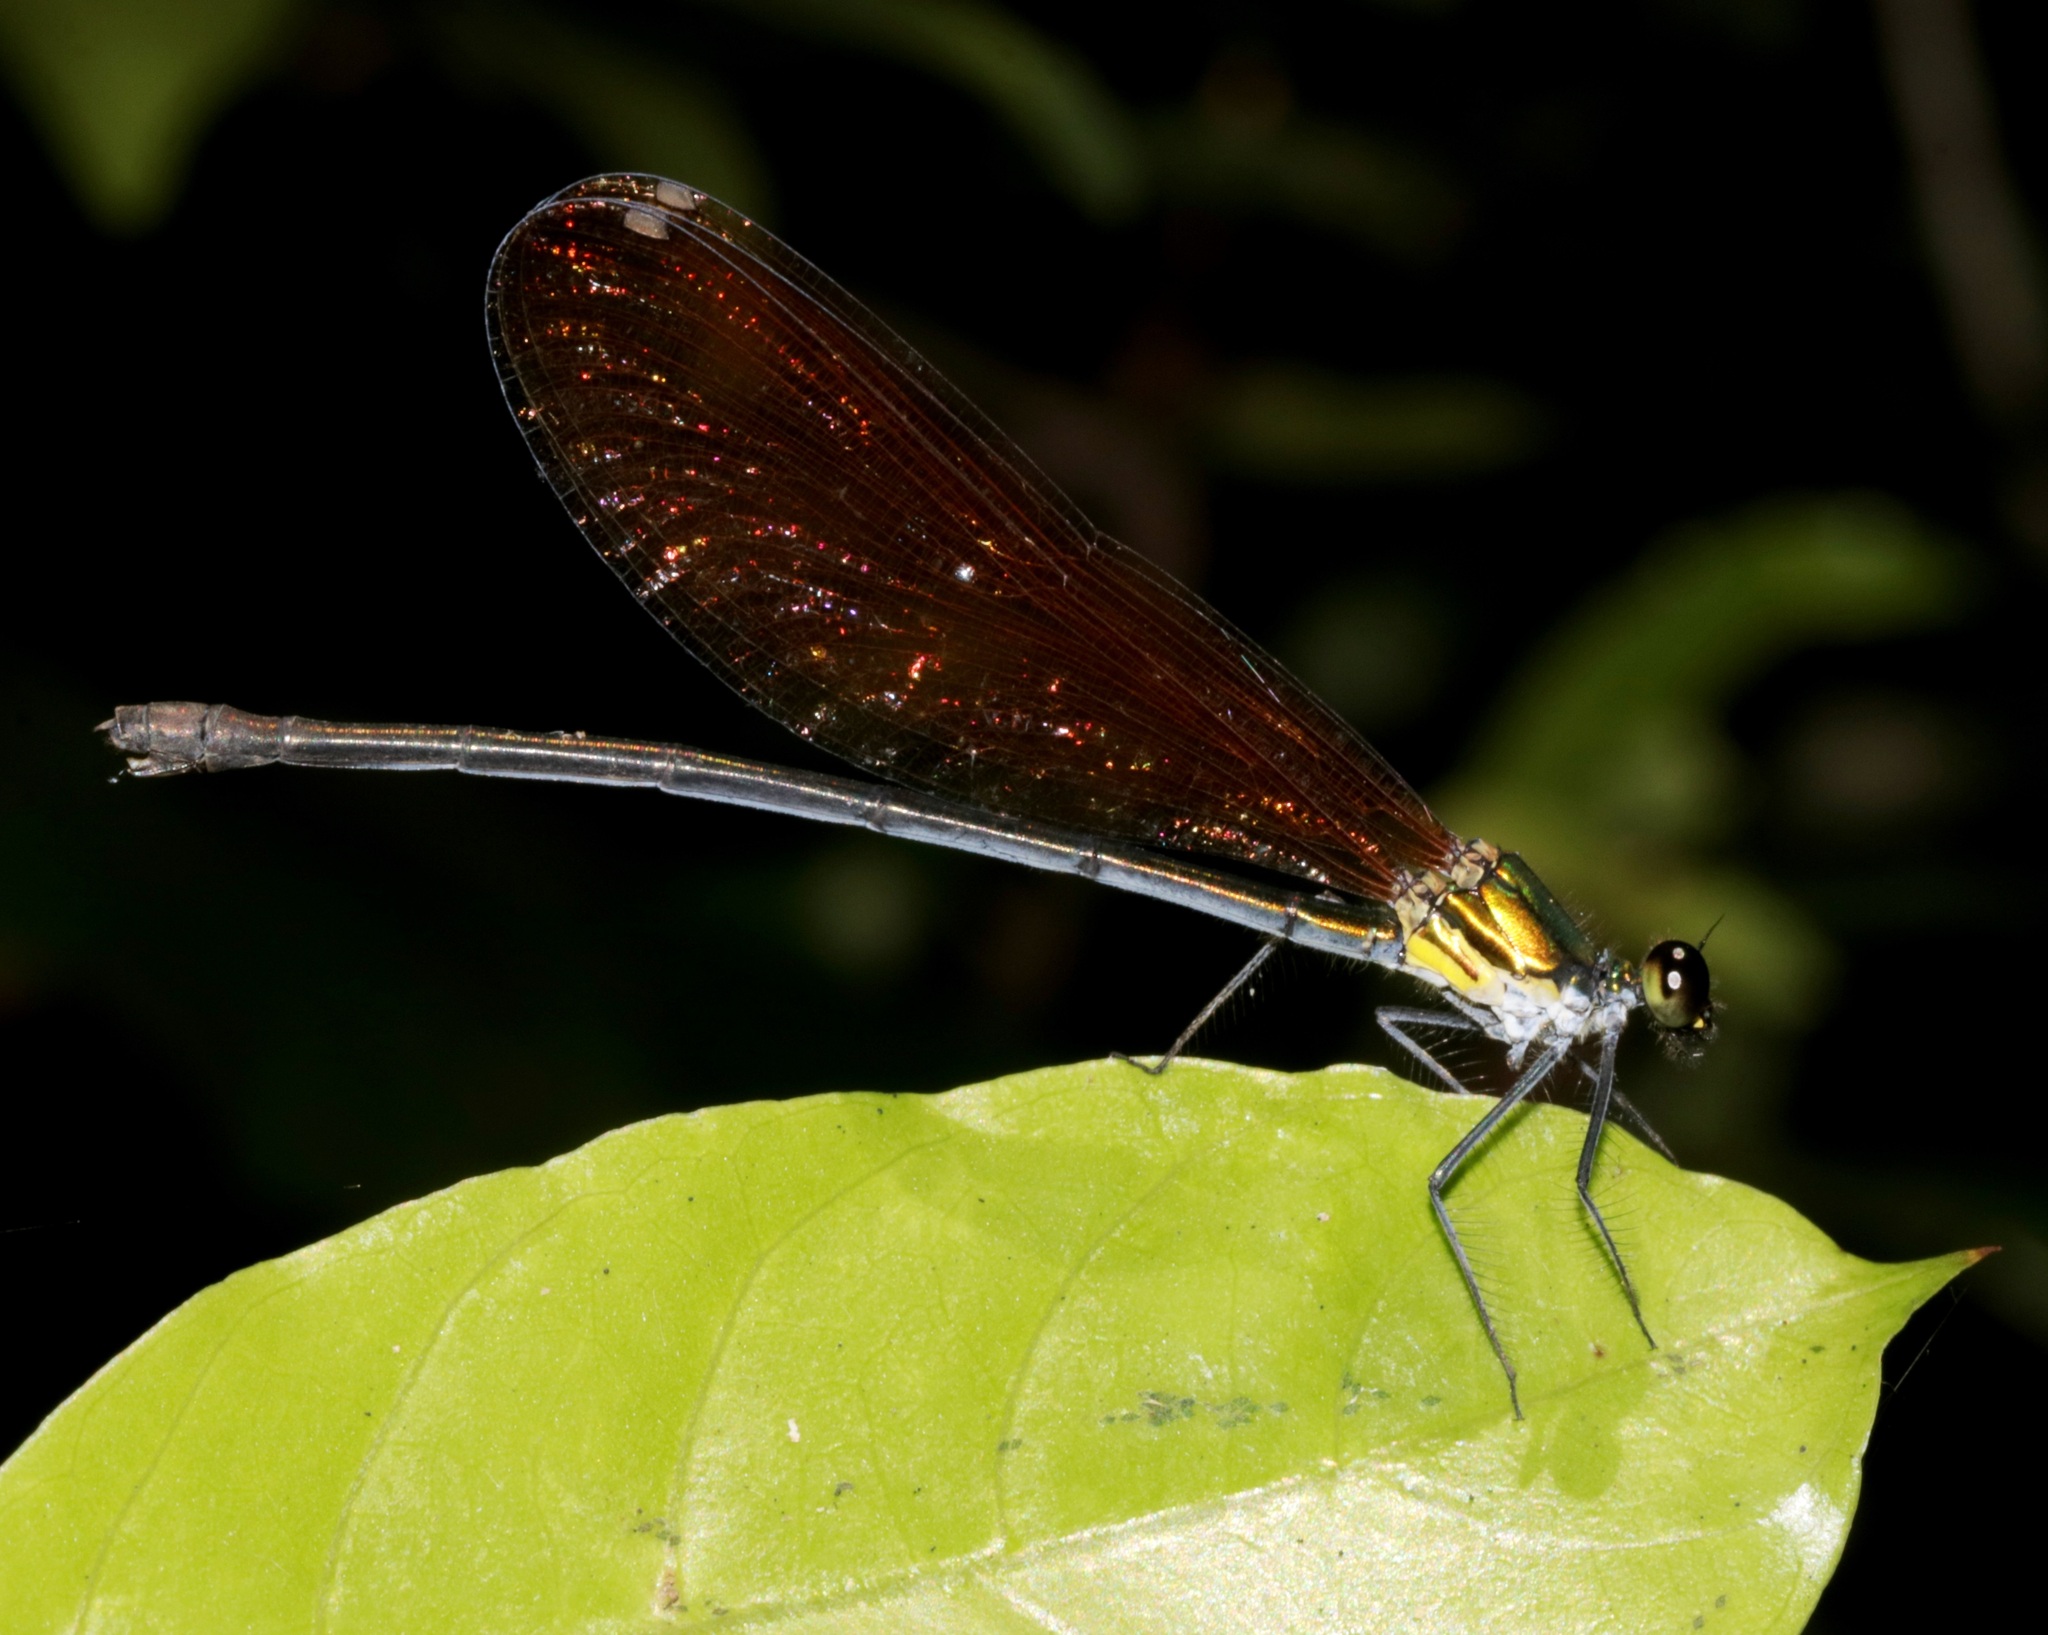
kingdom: Animalia
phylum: Arthropoda
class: Insecta
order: Odonata
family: Calopterygidae
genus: Mnais
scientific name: Mnais mneme
